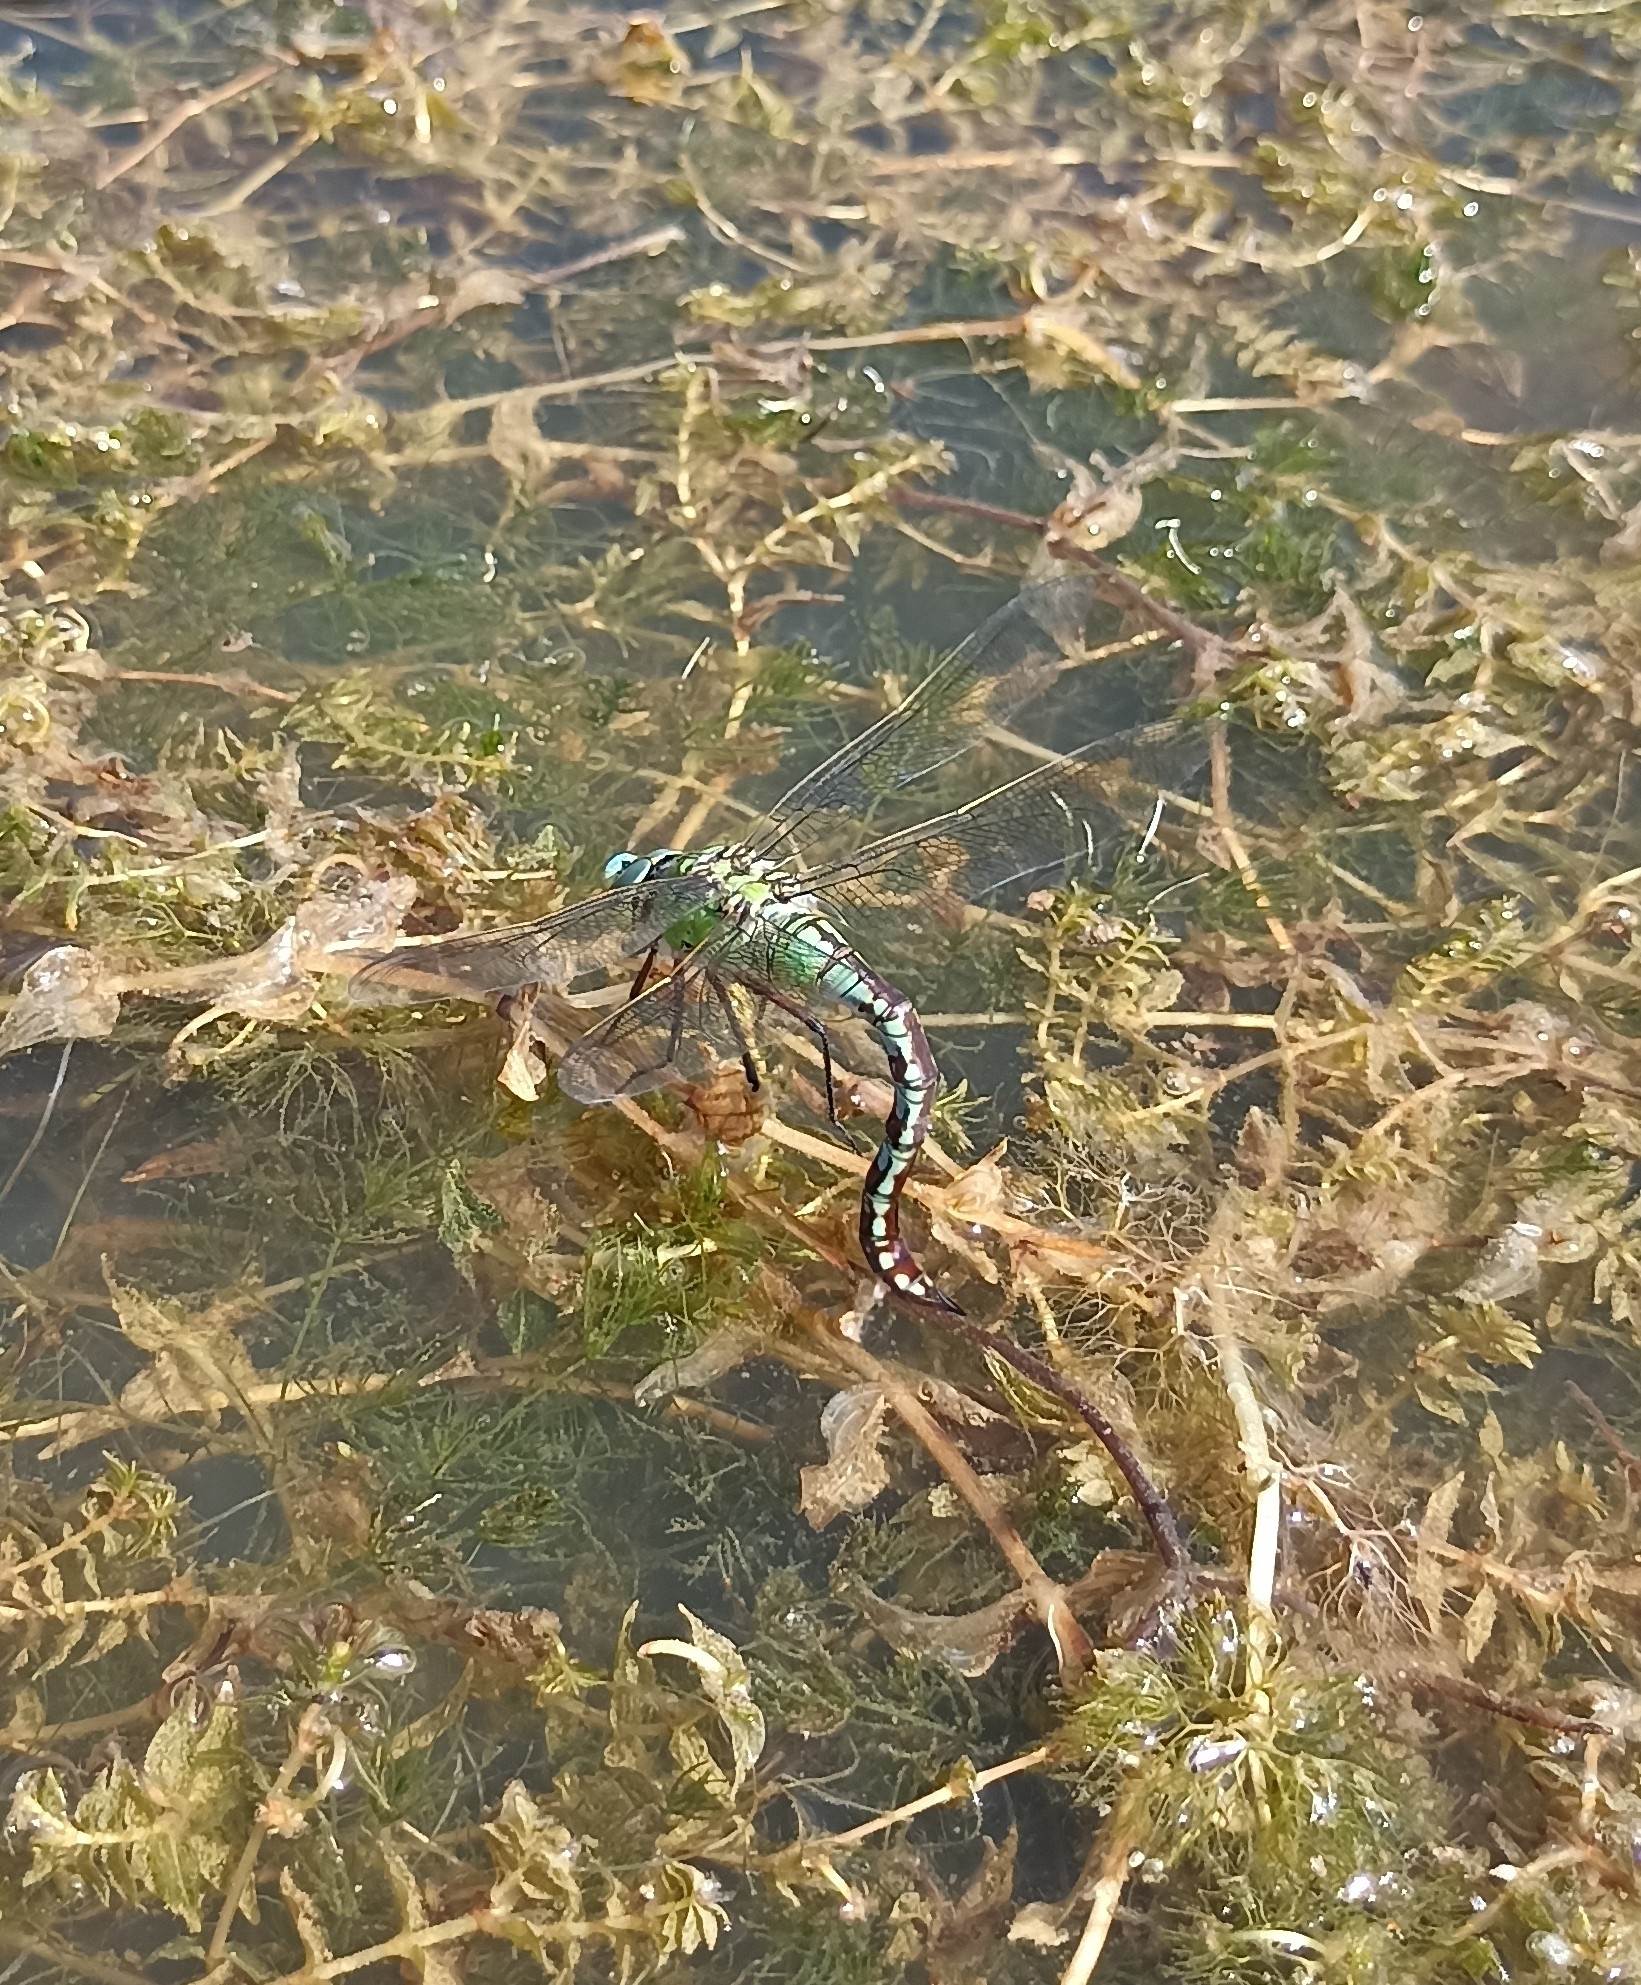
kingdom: Animalia
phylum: Arthropoda
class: Insecta
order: Odonata
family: Aeshnidae
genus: Anax
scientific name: Anax imperator
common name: Emperor dragonfly
